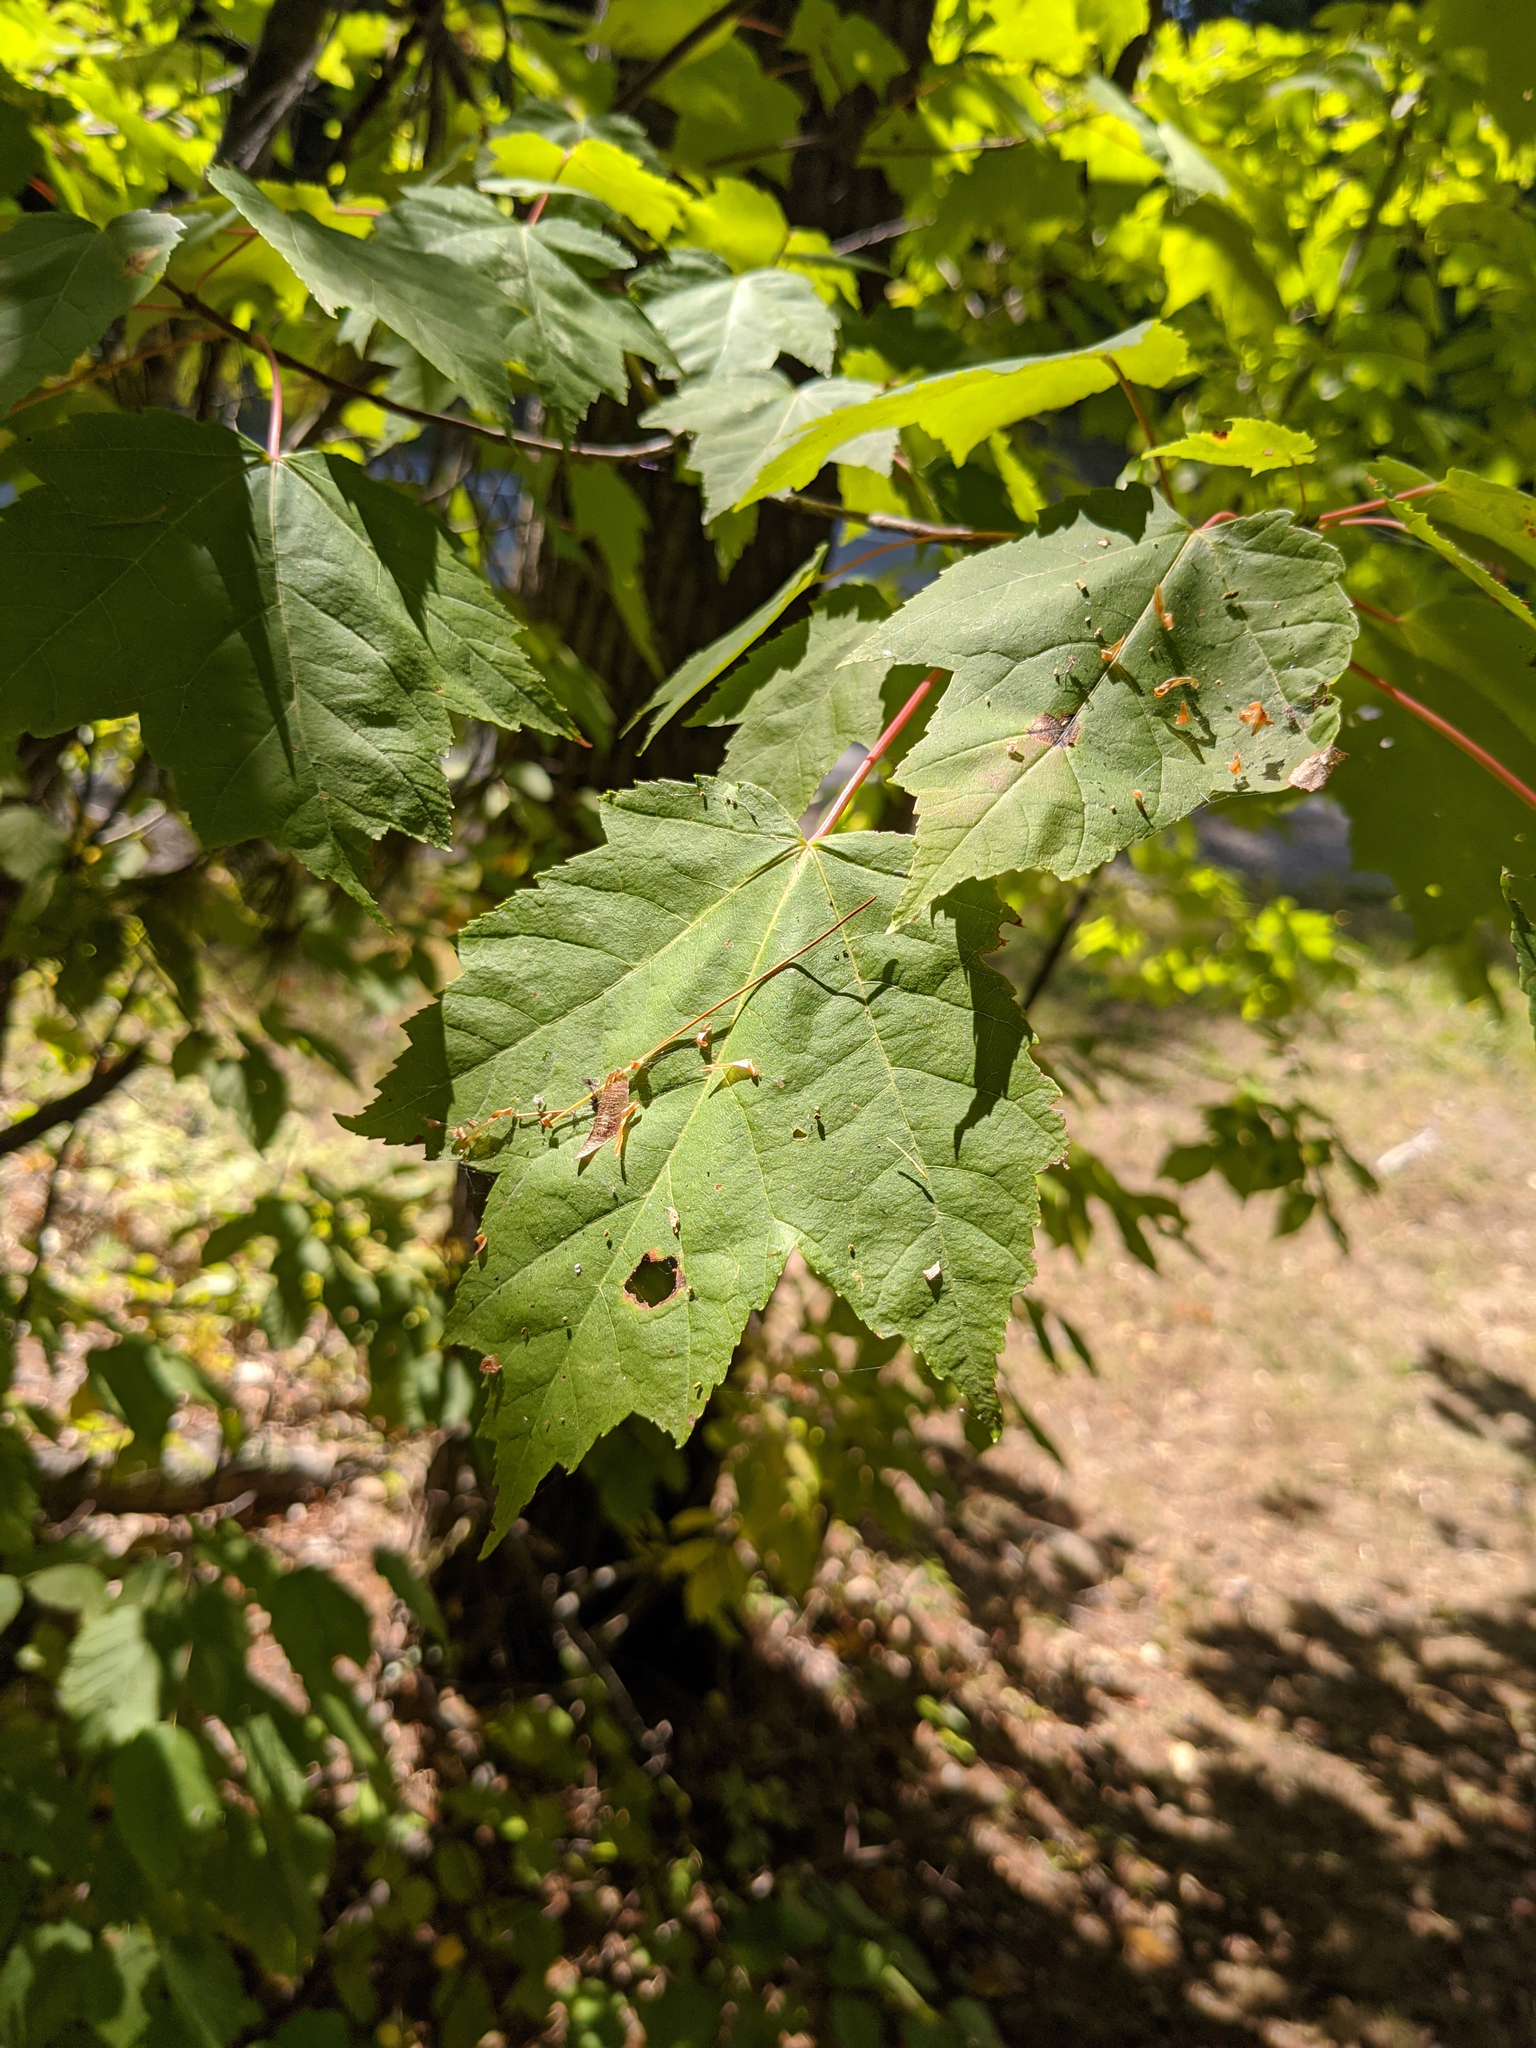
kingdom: Plantae
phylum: Tracheophyta
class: Magnoliopsida
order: Sapindales
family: Sapindaceae
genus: Acer
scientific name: Acer rubrum
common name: Red maple
